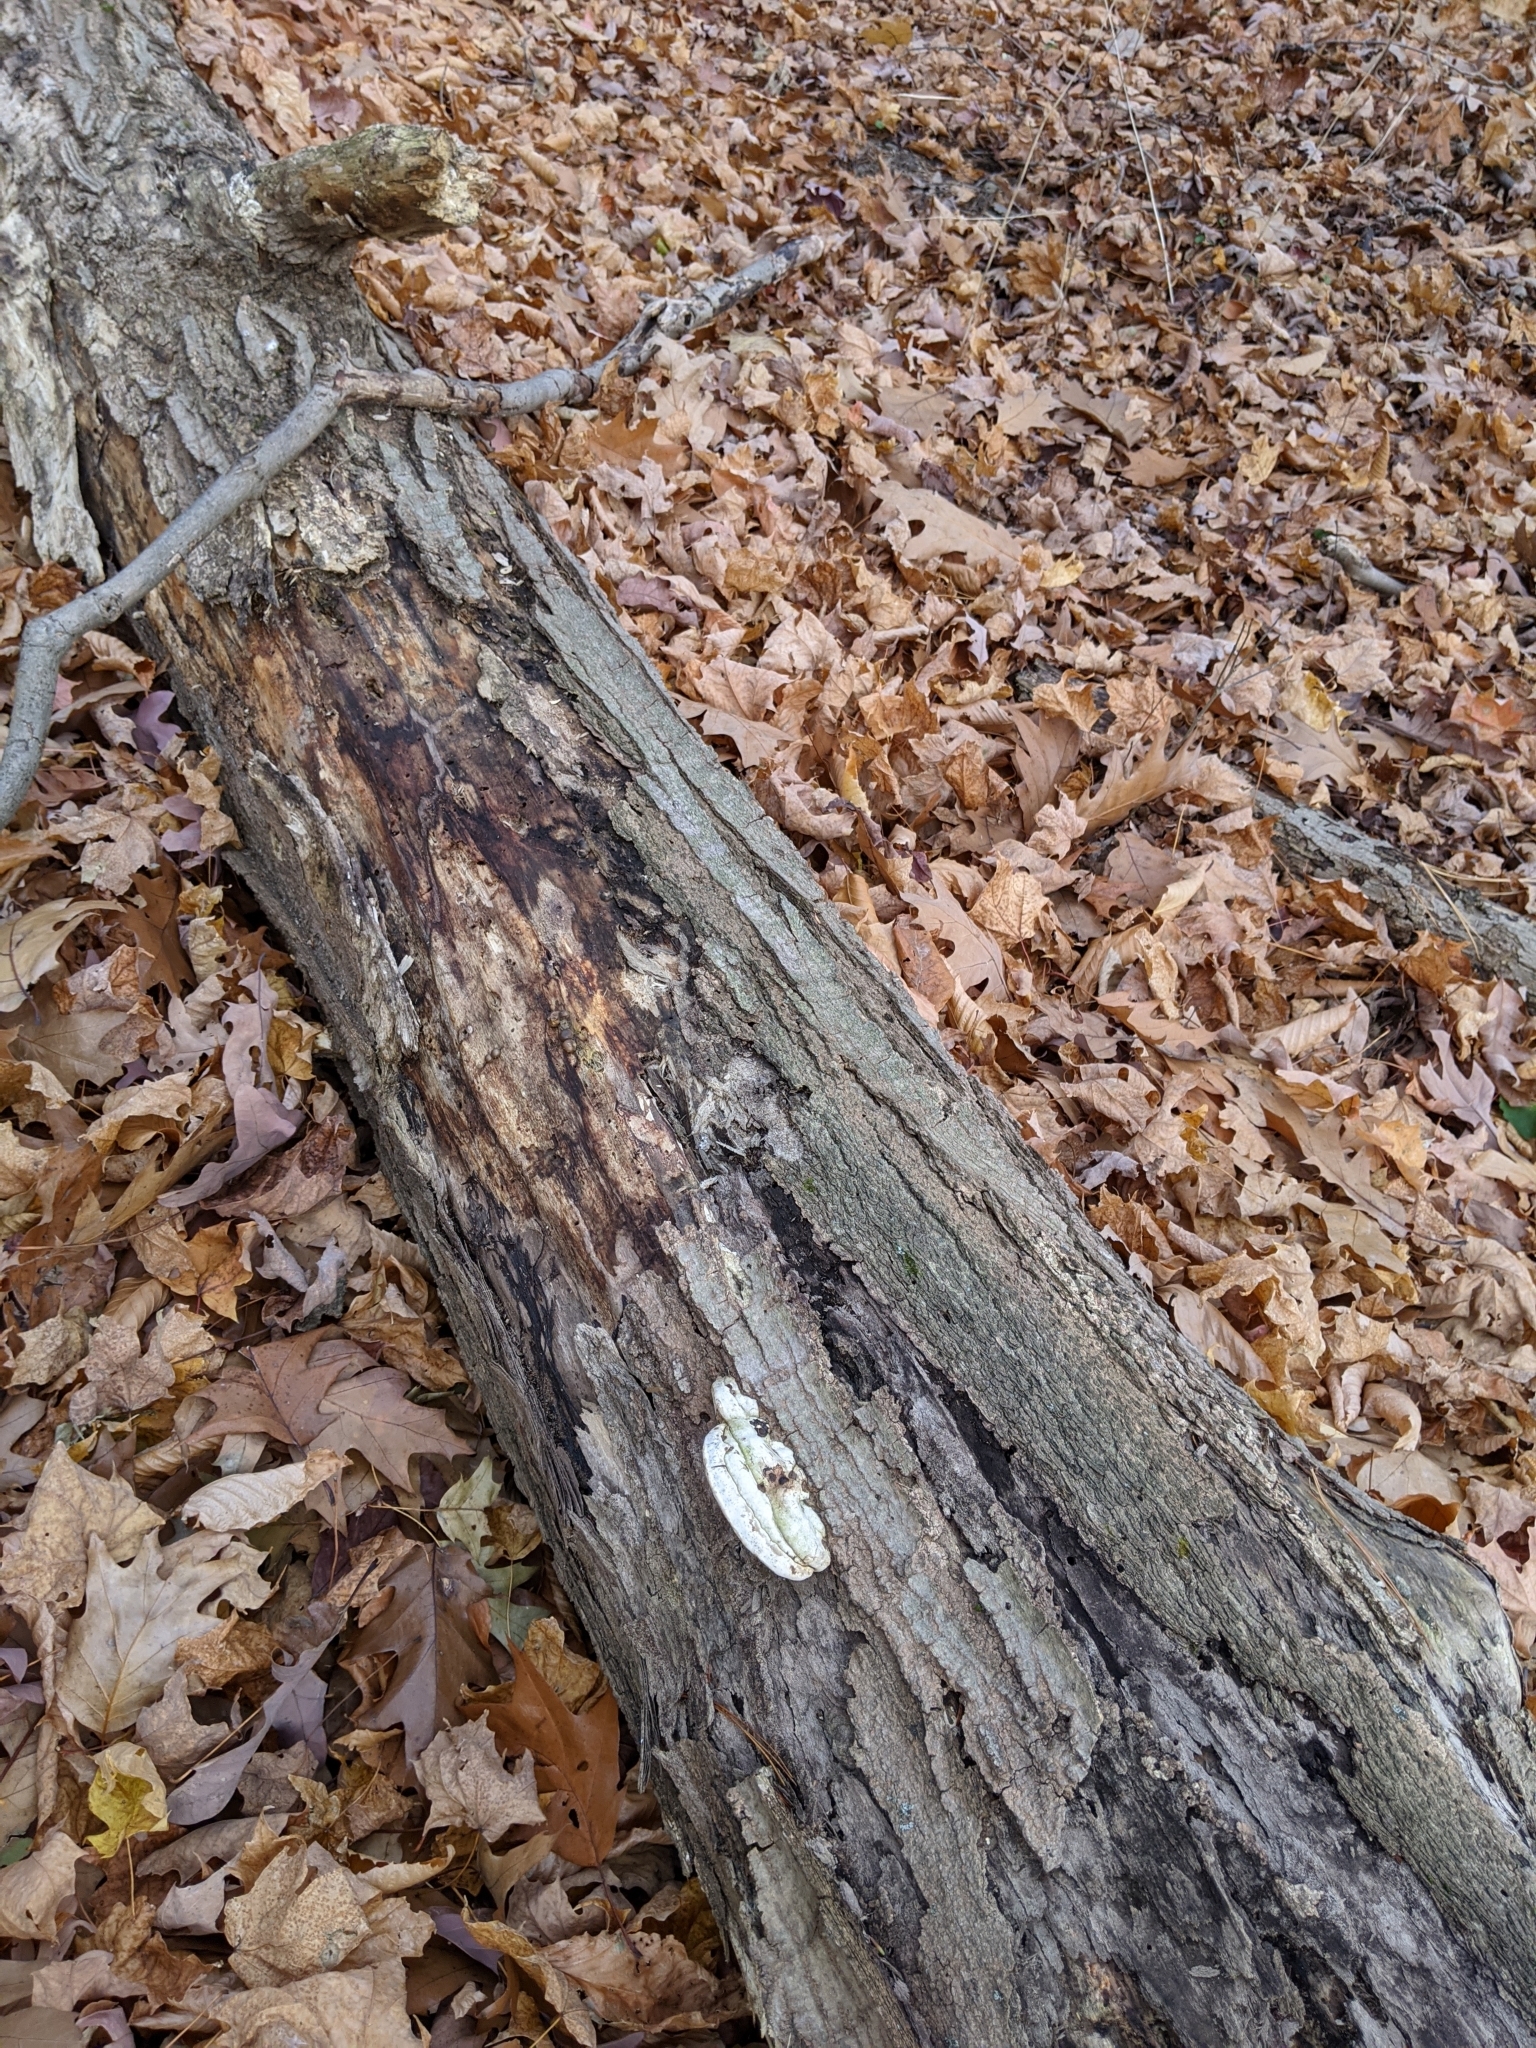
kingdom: Fungi
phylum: Basidiomycota
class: Agaricomycetes
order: Polyporales
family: Polyporaceae
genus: Ganoderma
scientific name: Ganoderma applanatum
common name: Artist's bracket
